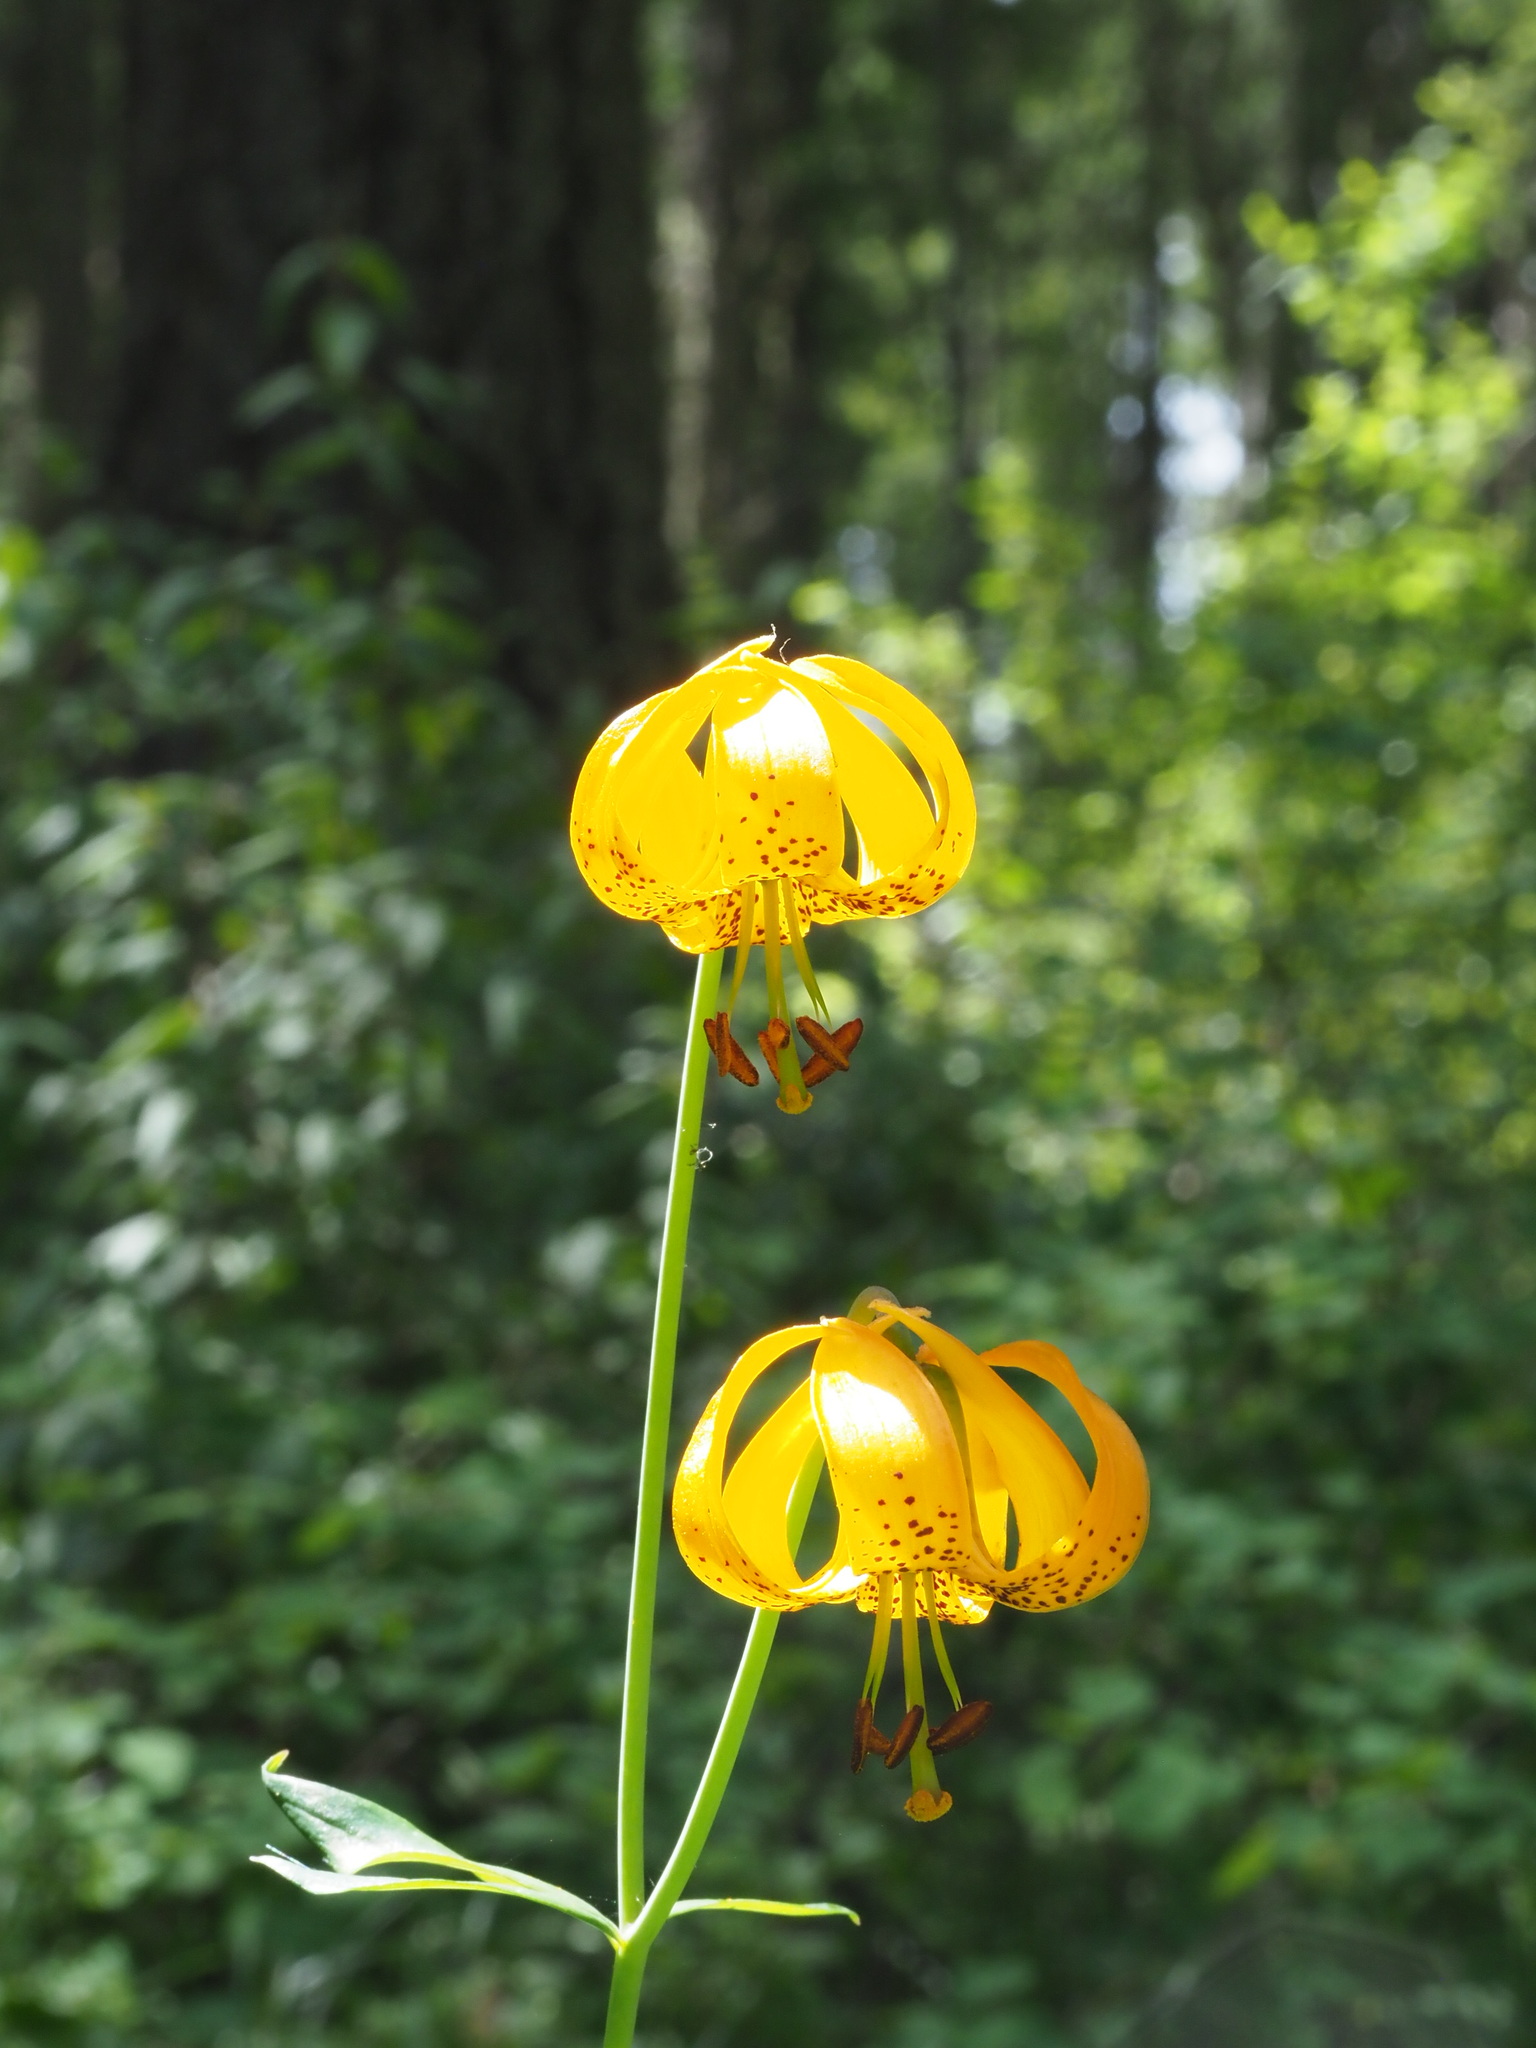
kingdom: Plantae
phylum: Tracheophyta
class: Liliopsida
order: Liliales
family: Liliaceae
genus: Lilium
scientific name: Lilium columbianum
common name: Columbia lily
